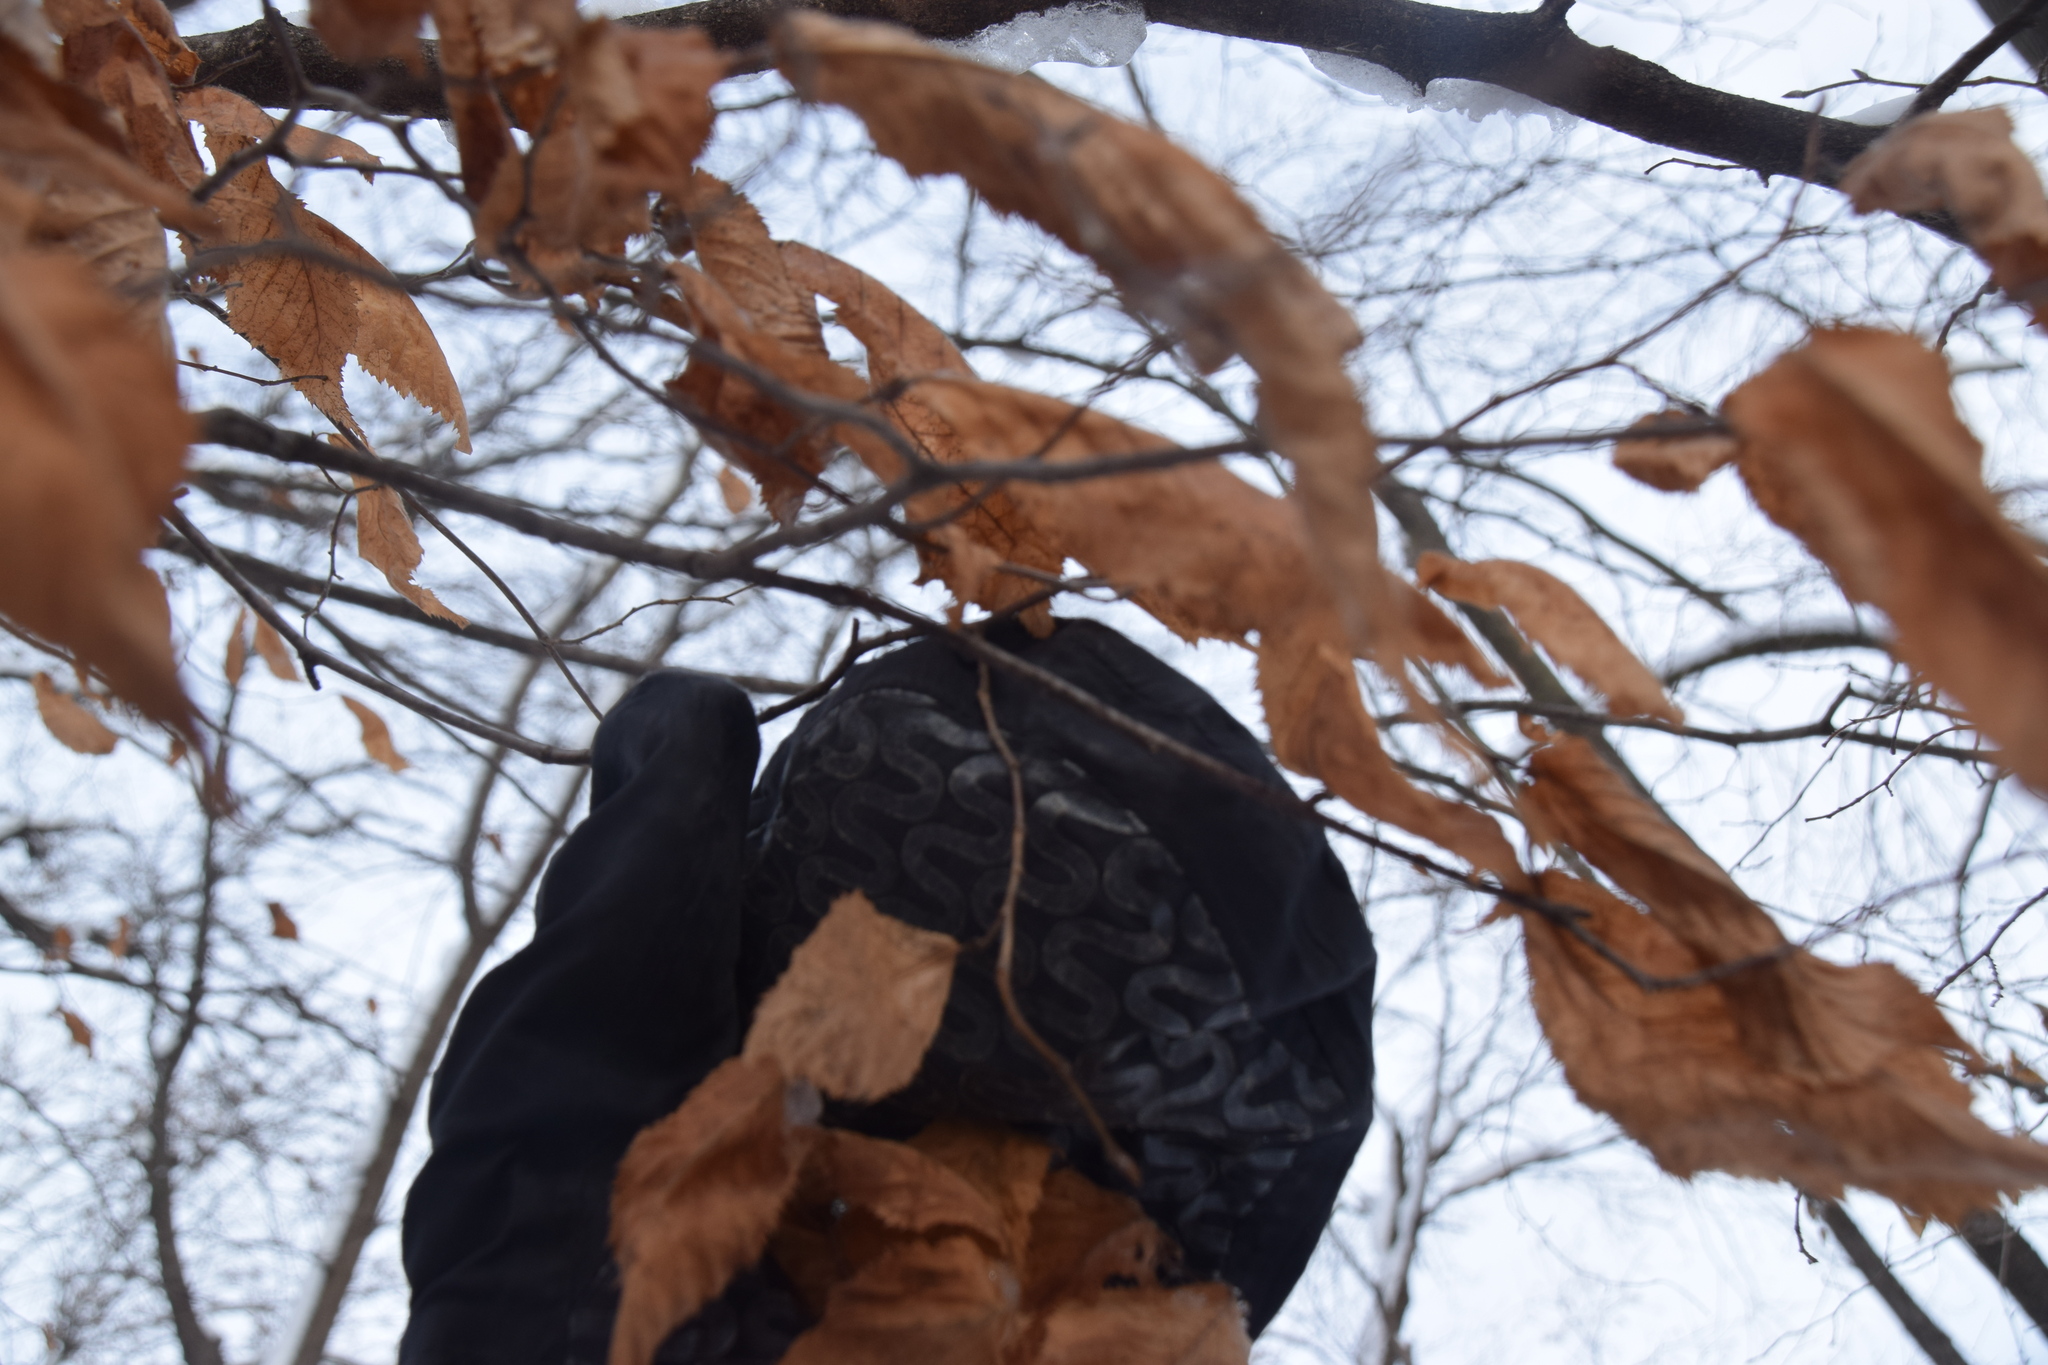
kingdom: Plantae
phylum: Tracheophyta
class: Magnoliopsida
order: Fagales
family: Betulaceae
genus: Ostrya
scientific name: Ostrya virginiana
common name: Ironwood
